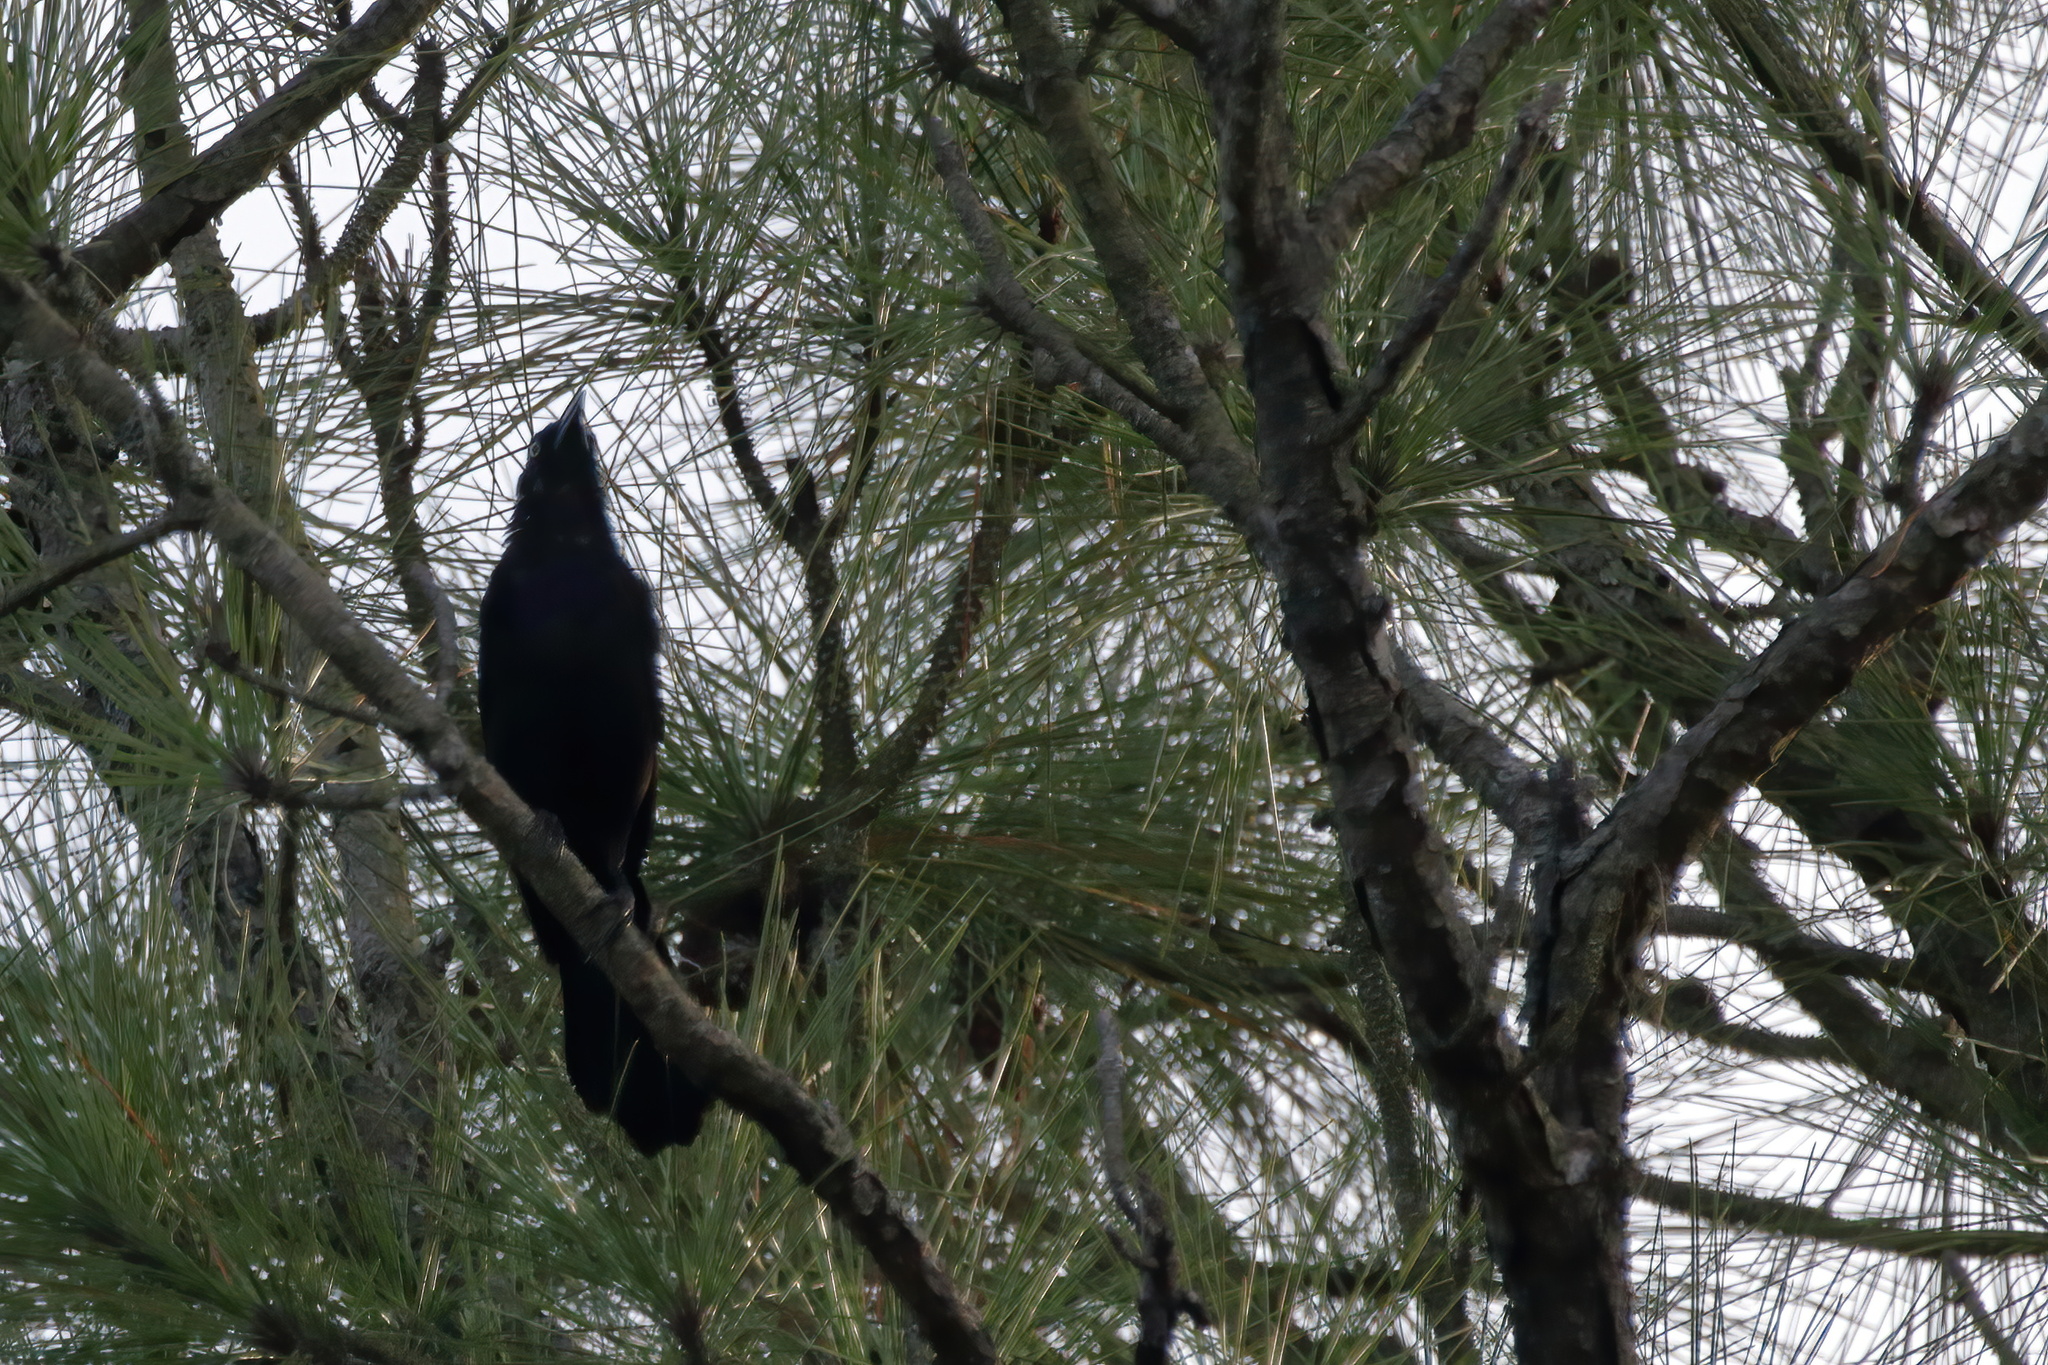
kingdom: Animalia
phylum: Chordata
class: Aves
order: Passeriformes
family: Icteridae
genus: Quiscalus
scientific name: Quiscalus quiscula
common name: Common grackle
